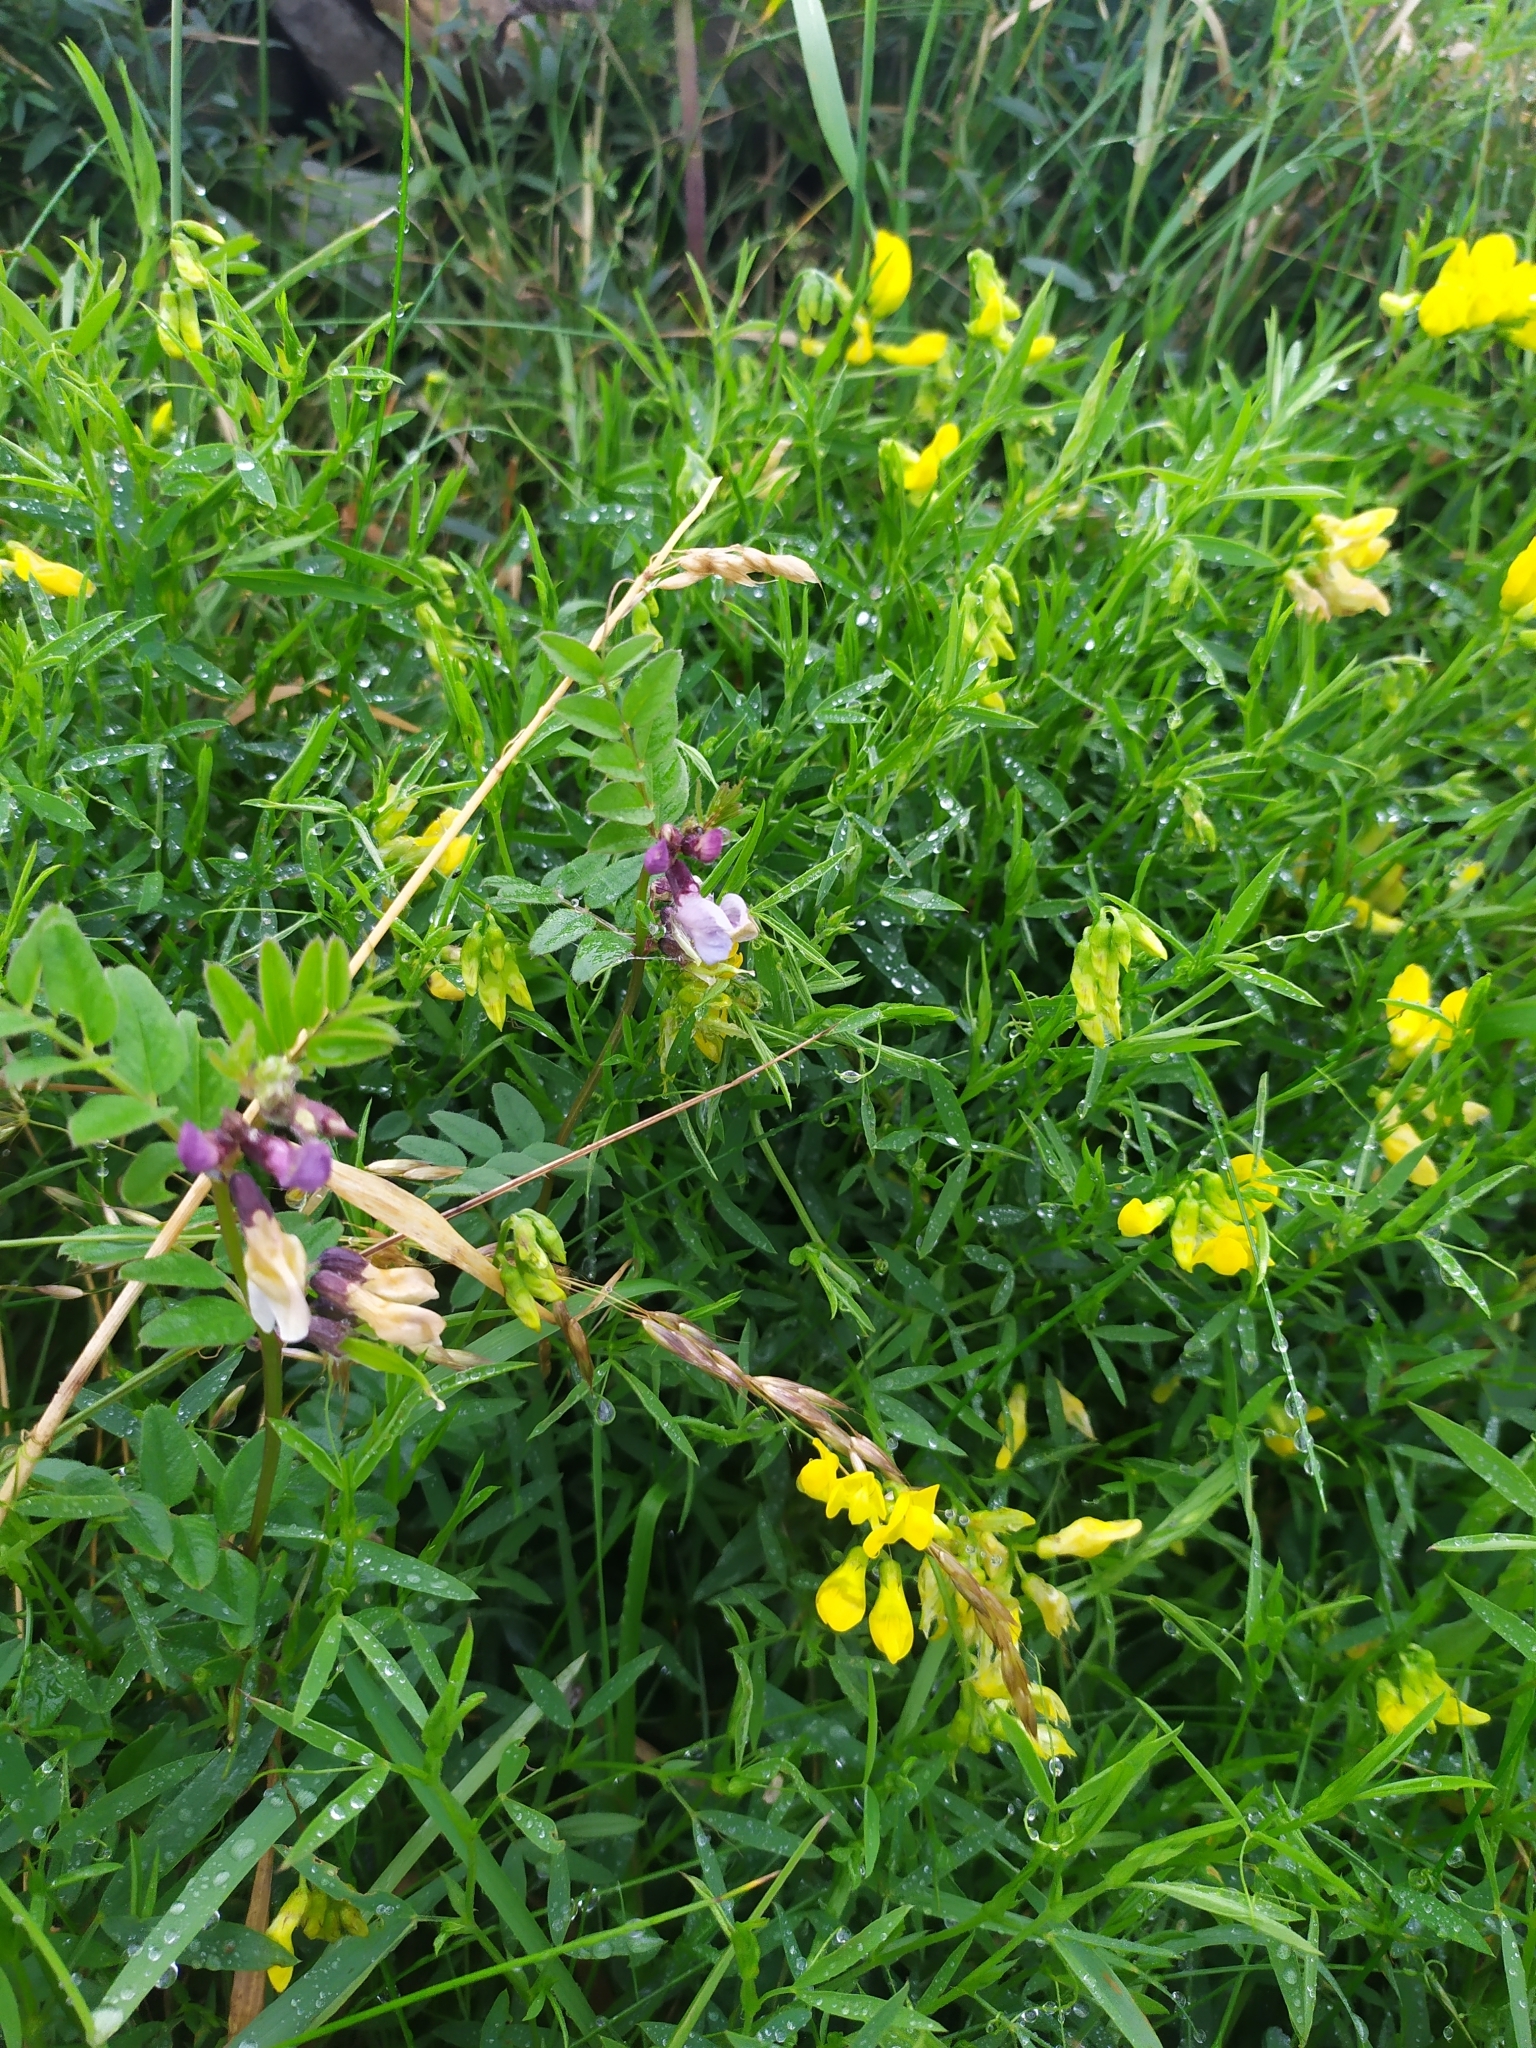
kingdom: Plantae
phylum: Tracheophyta
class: Magnoliopsida
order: Fabales
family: Fabaceae
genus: Lathyrus
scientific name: Lathyrus pratensis
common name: Meadow vetchling
